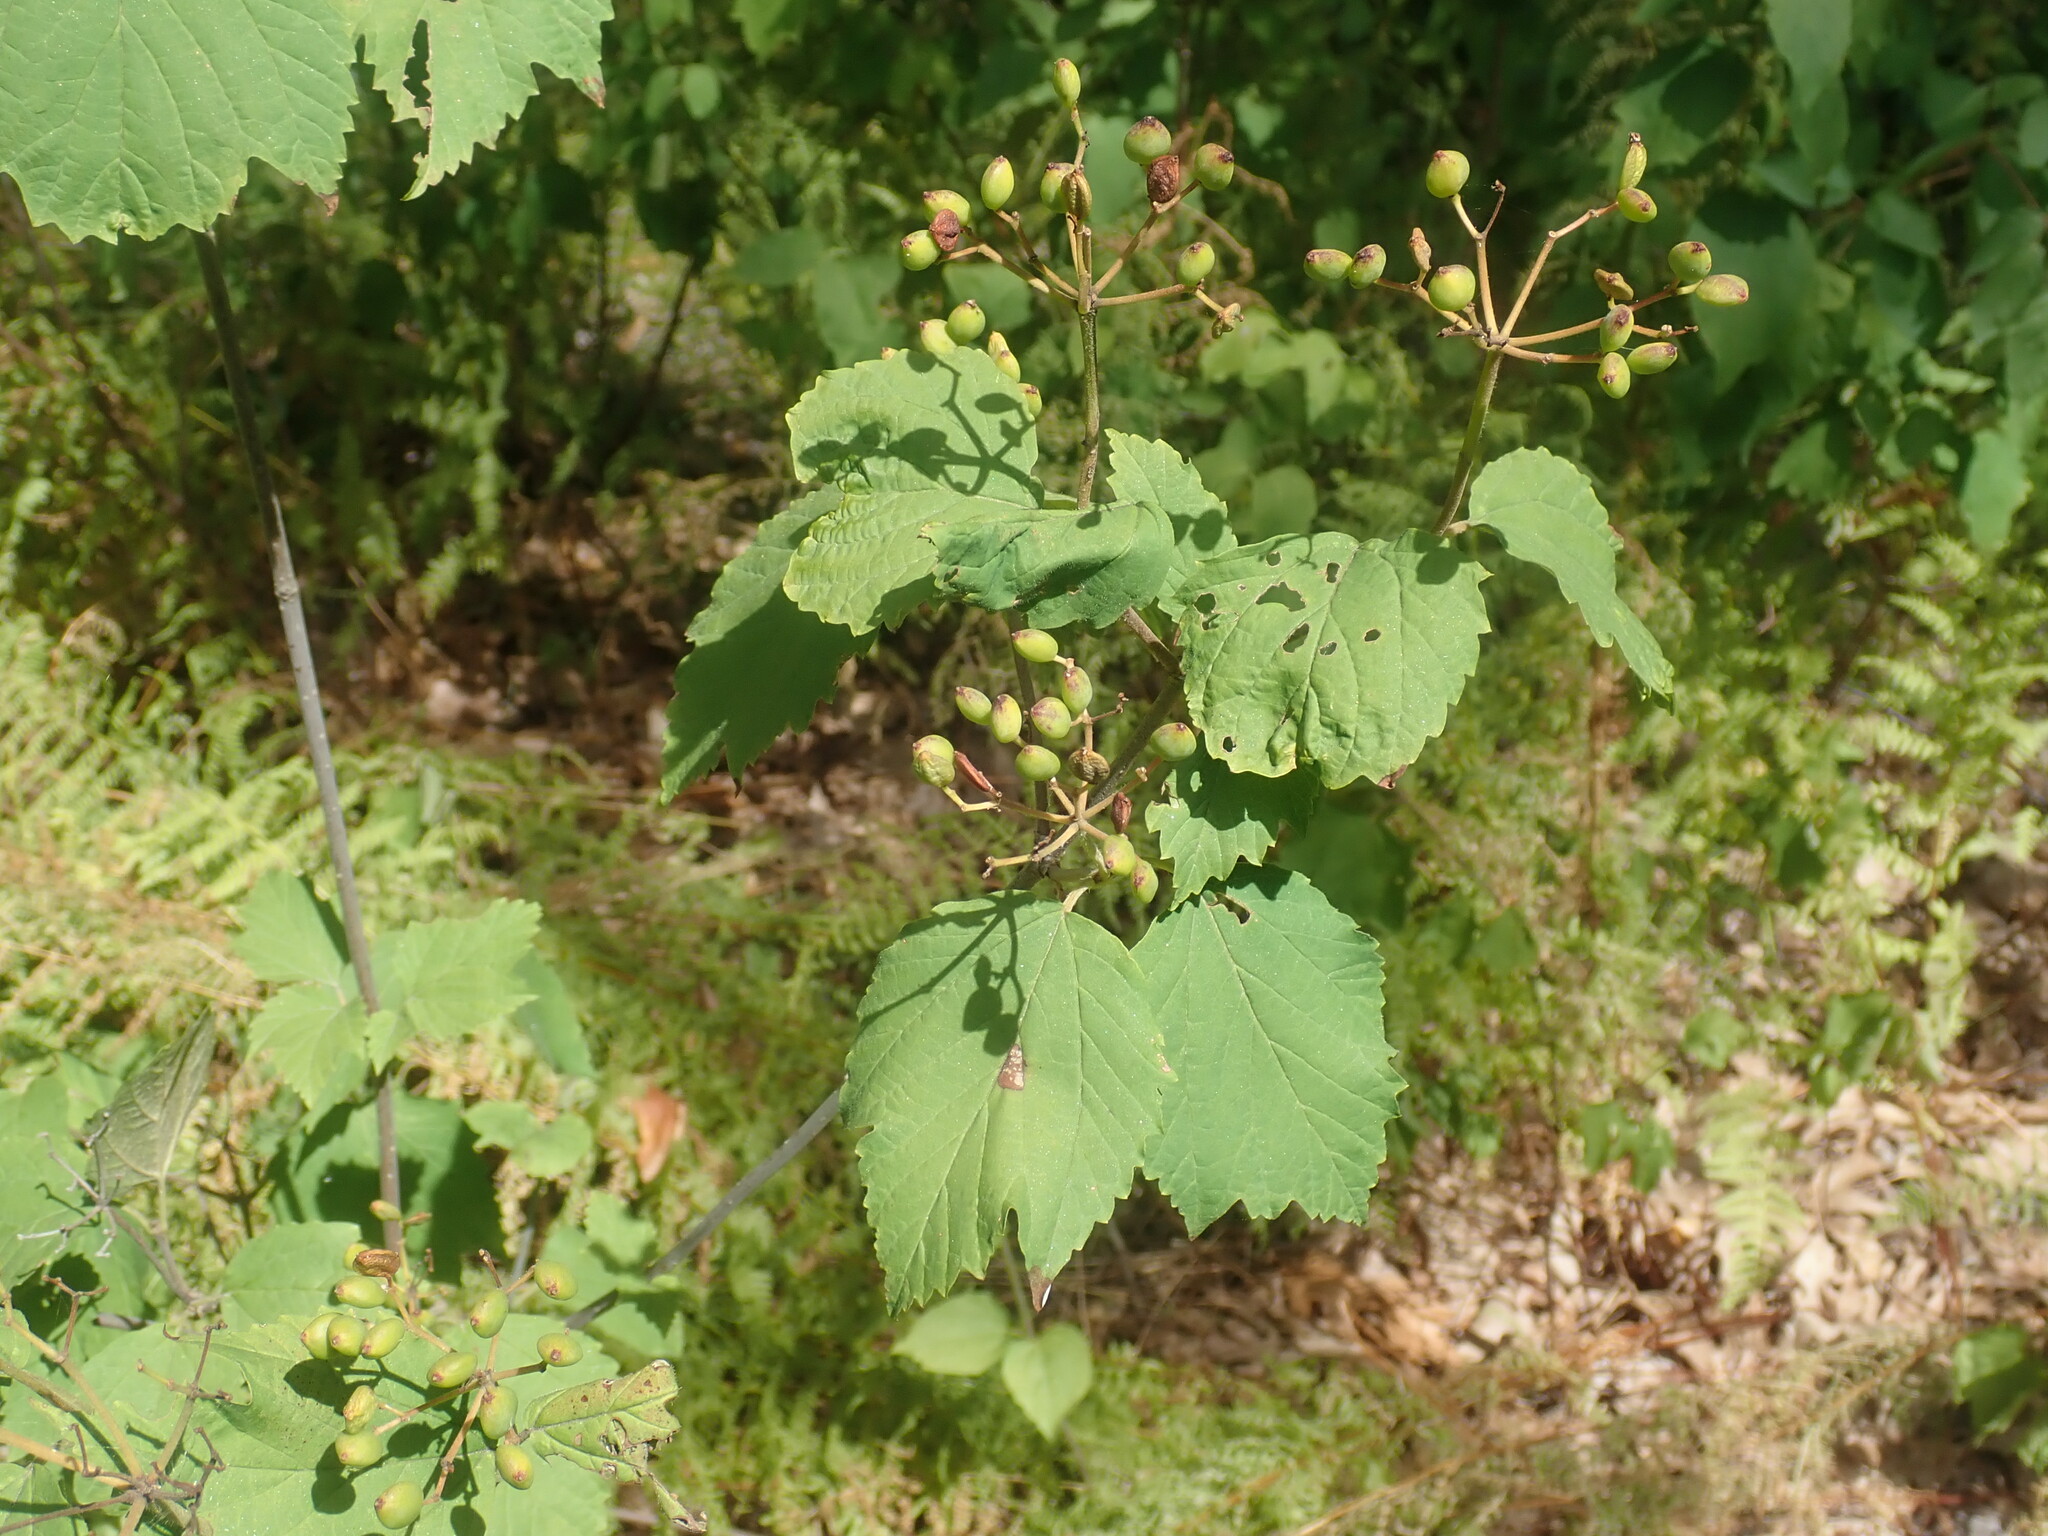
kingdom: Plantae
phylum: Tracheophyta
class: Magnoliopsida
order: Dipsacales
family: Viburnaceae
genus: Viburnum
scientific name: Viburnum acerifolium
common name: Dockmackie
